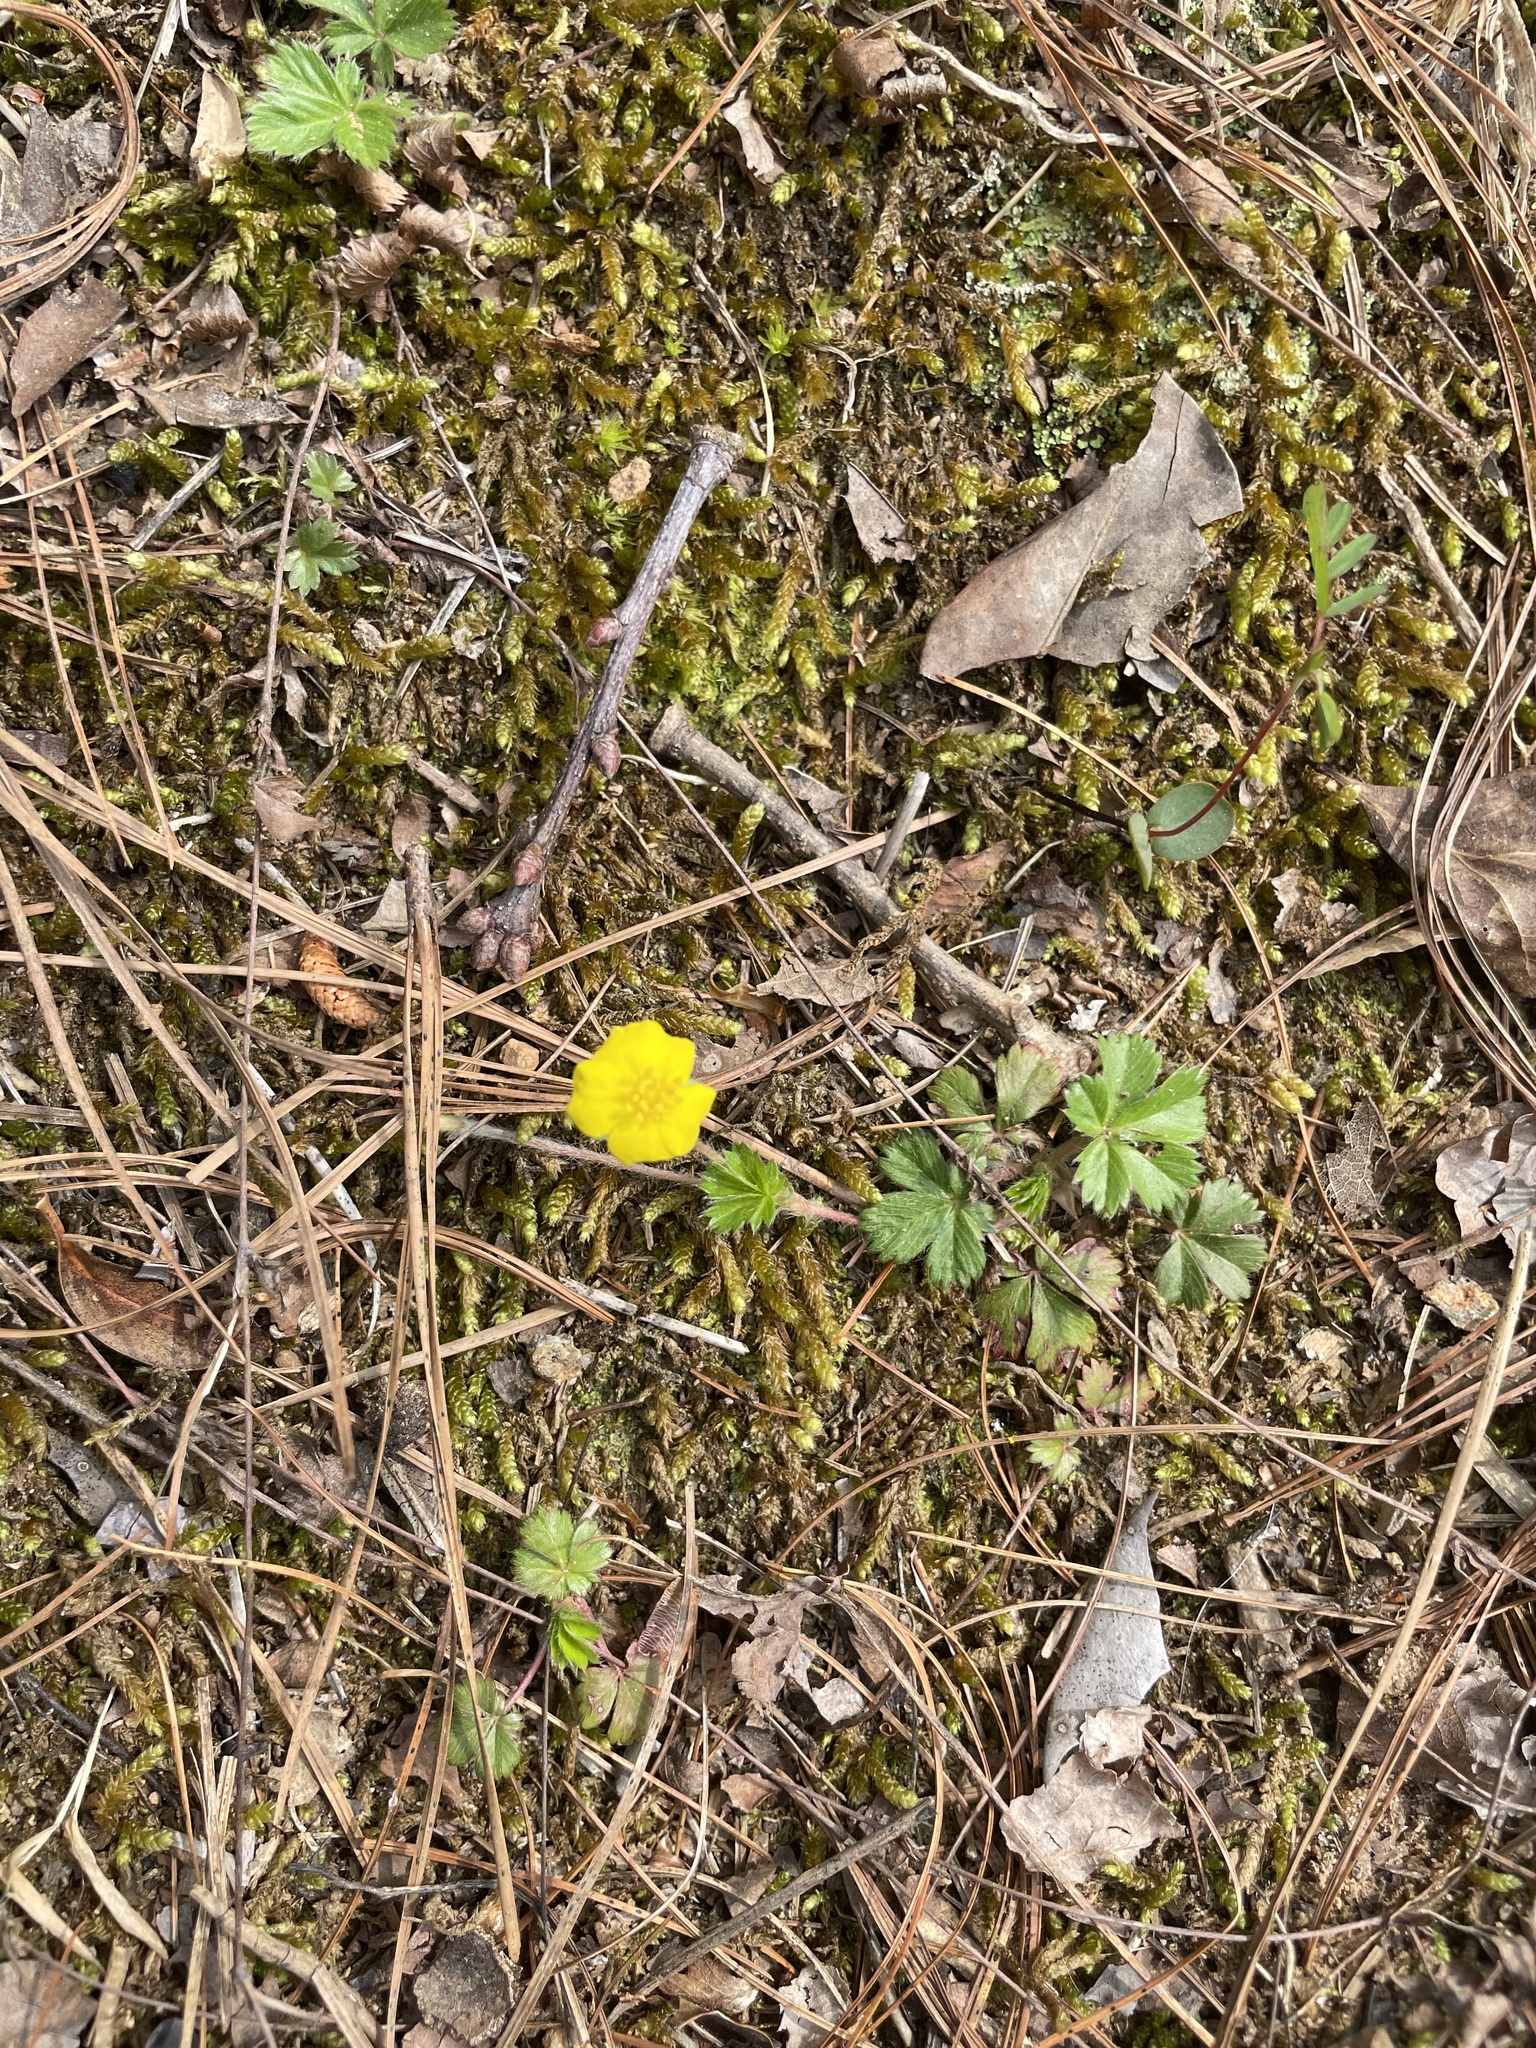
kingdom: Plantae
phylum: Tracheophyta
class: Magnoliopsida
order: Rosales
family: Rosaceae
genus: Potentilla
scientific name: Potentilla canadensis
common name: Canada cinquefoil
